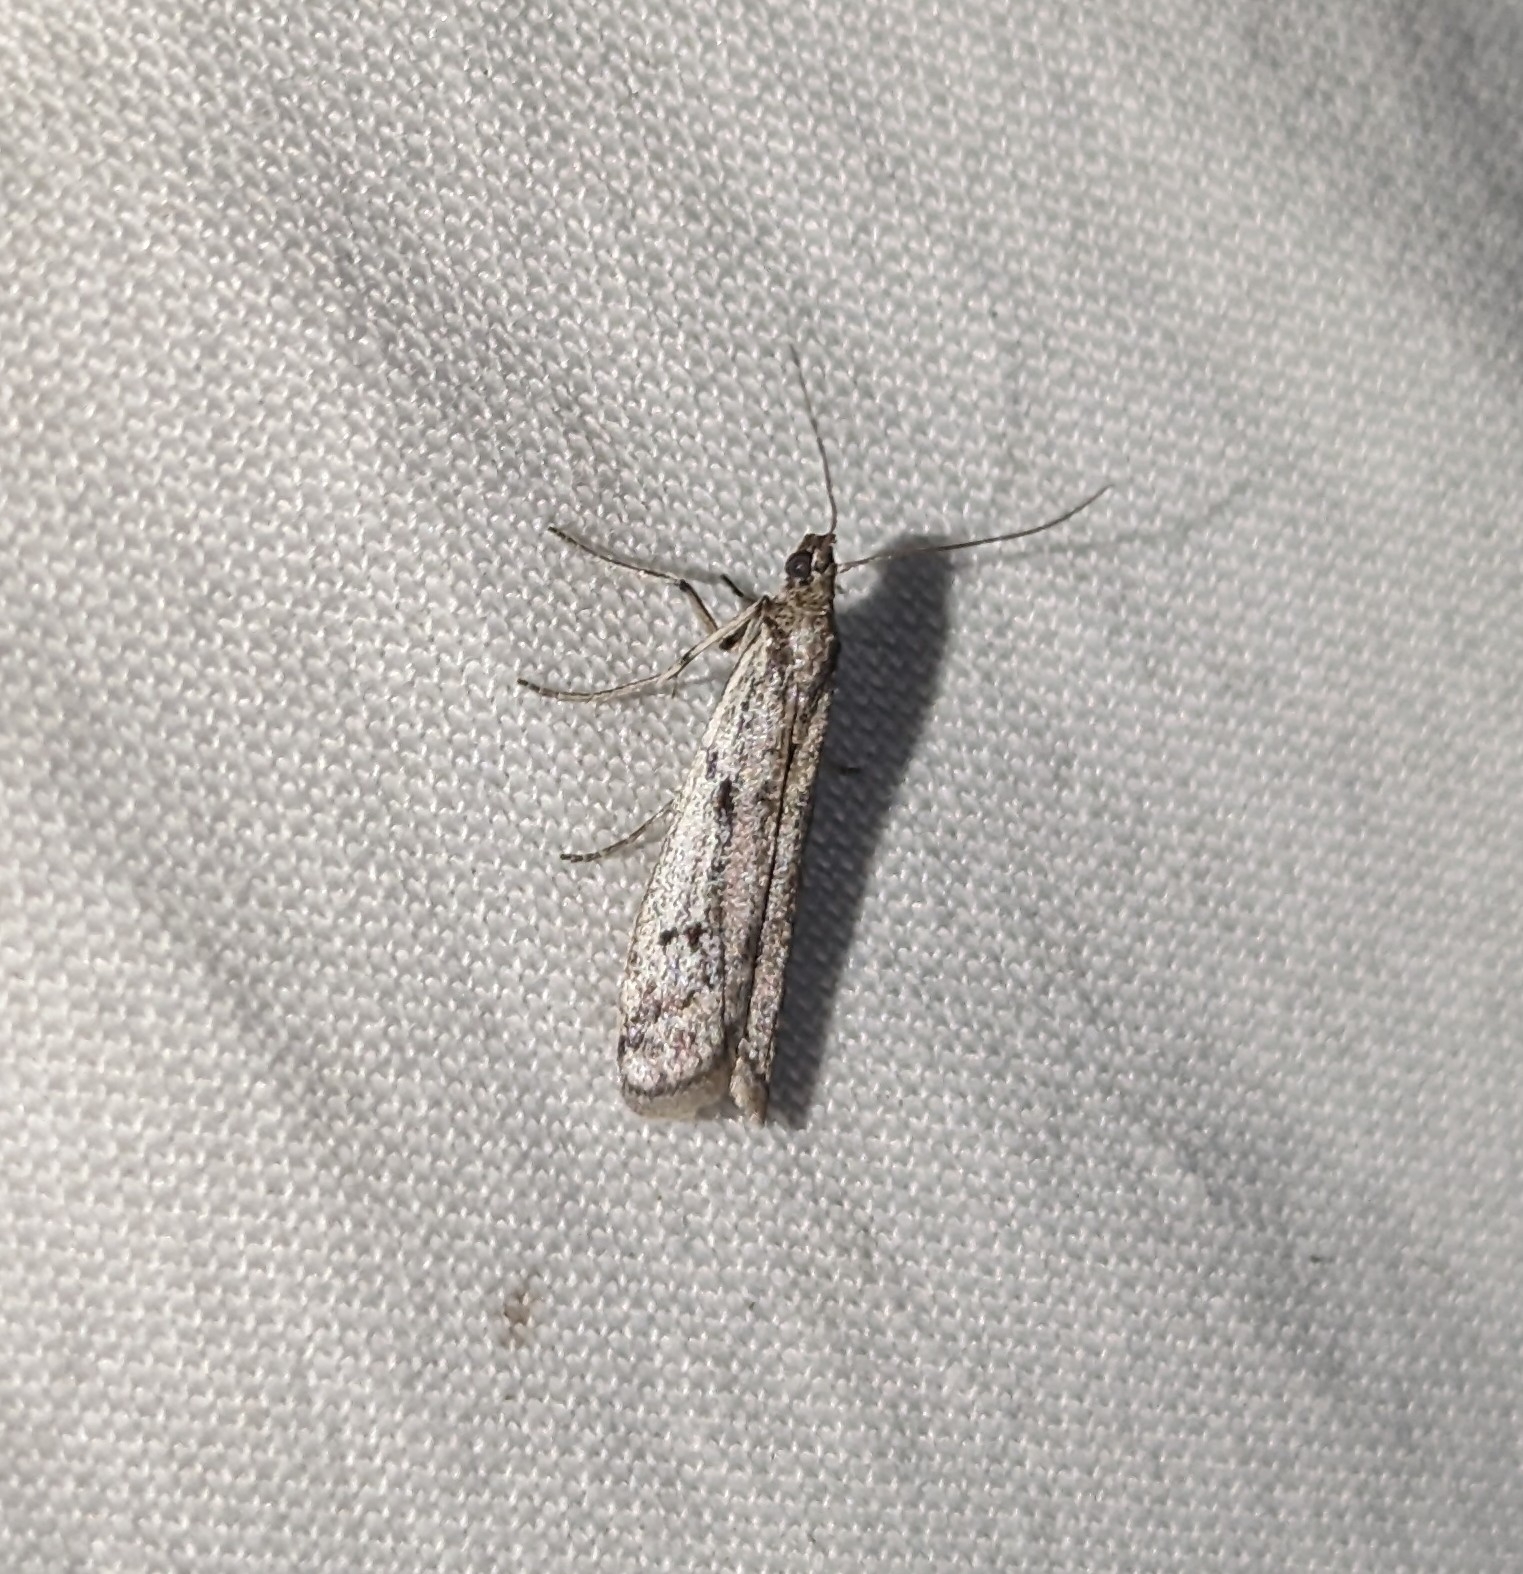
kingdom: Animalia
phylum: Arthropoda
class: Insecta
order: Lepidoptera
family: Pyralidae
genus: Phycitodes
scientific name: Phycitodes mucidellus
